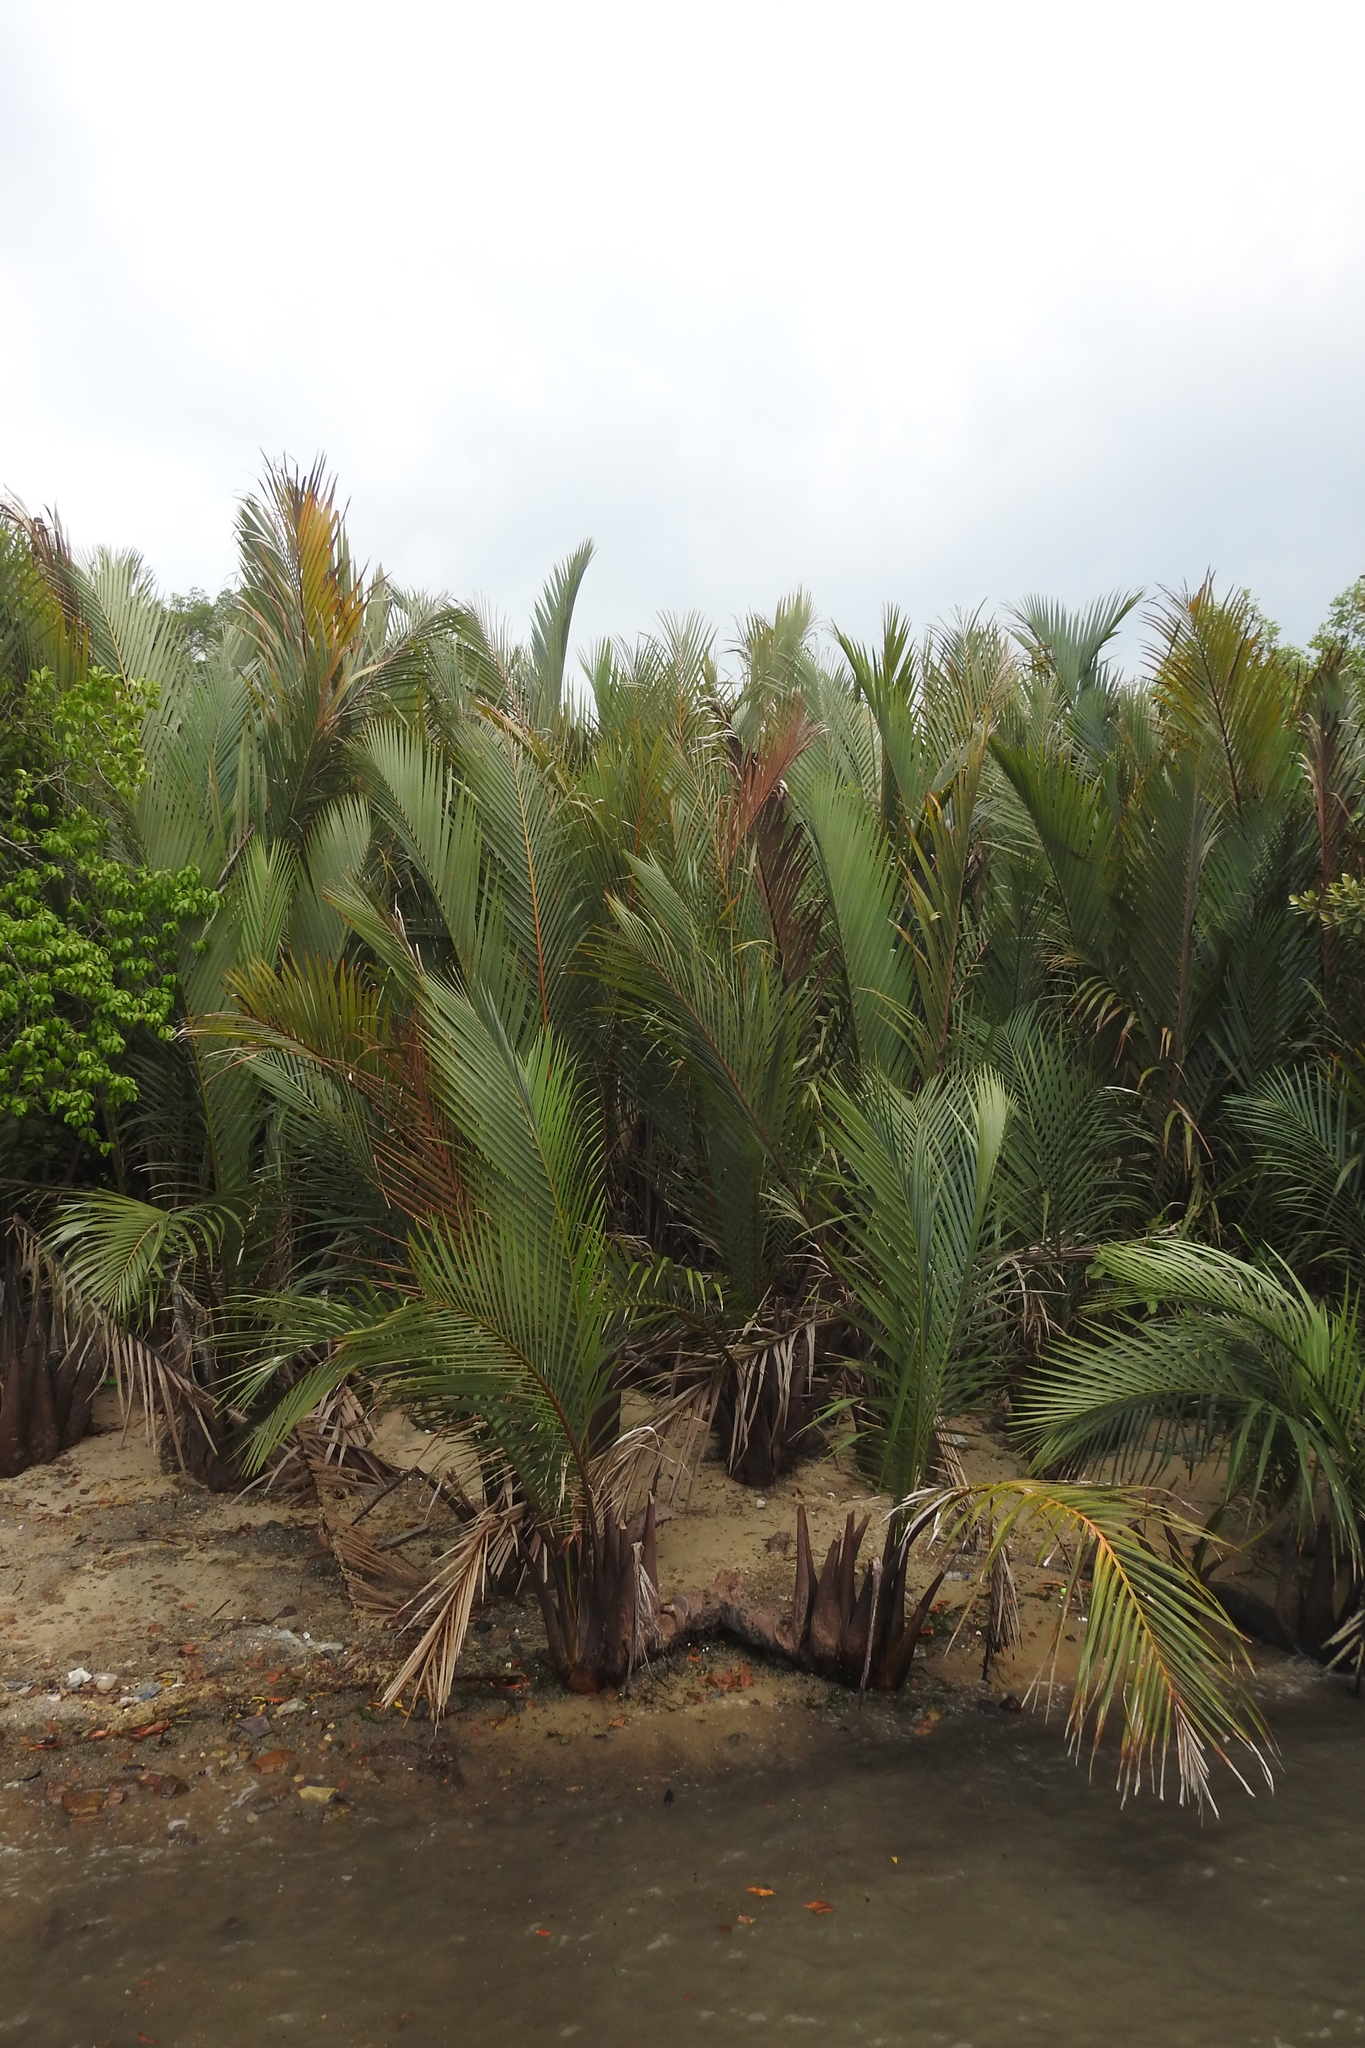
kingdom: Plantae
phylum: Tracheophyta
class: Liliopsida
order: Arecales
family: Arecaceae
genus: Nypa
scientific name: Nypa fruticans
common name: Mangrove palm
